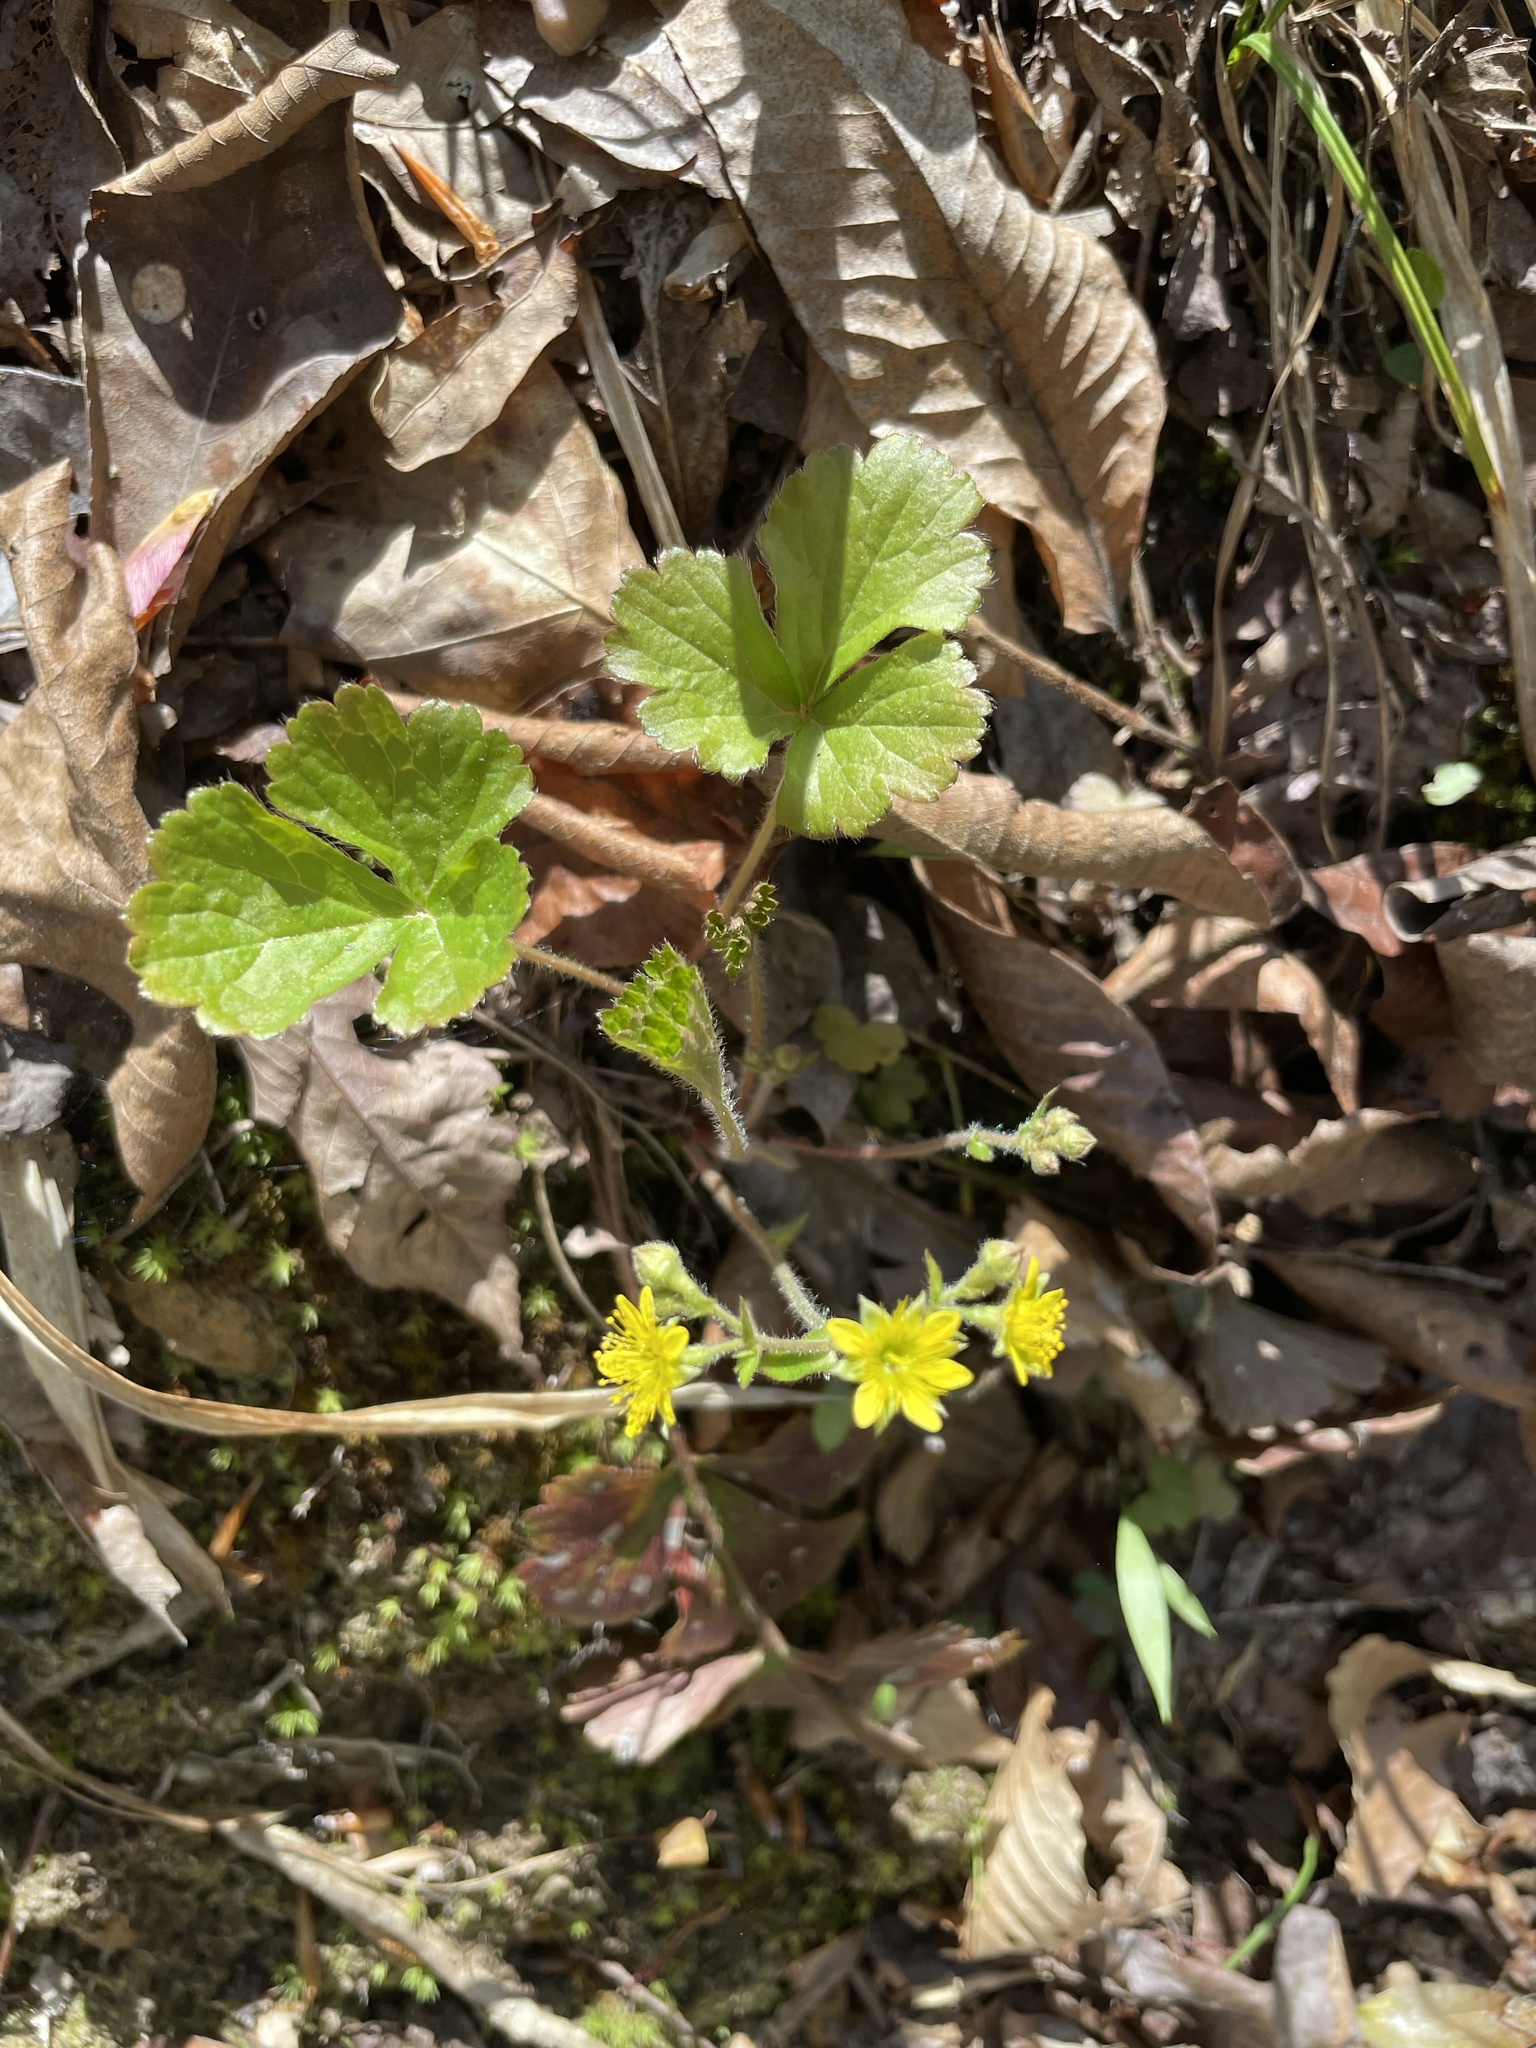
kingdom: Plantae
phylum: Tracheophyta
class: Magnoliopsida
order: Rosales
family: Rosaceae
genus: Geum
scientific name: Geum donianum
